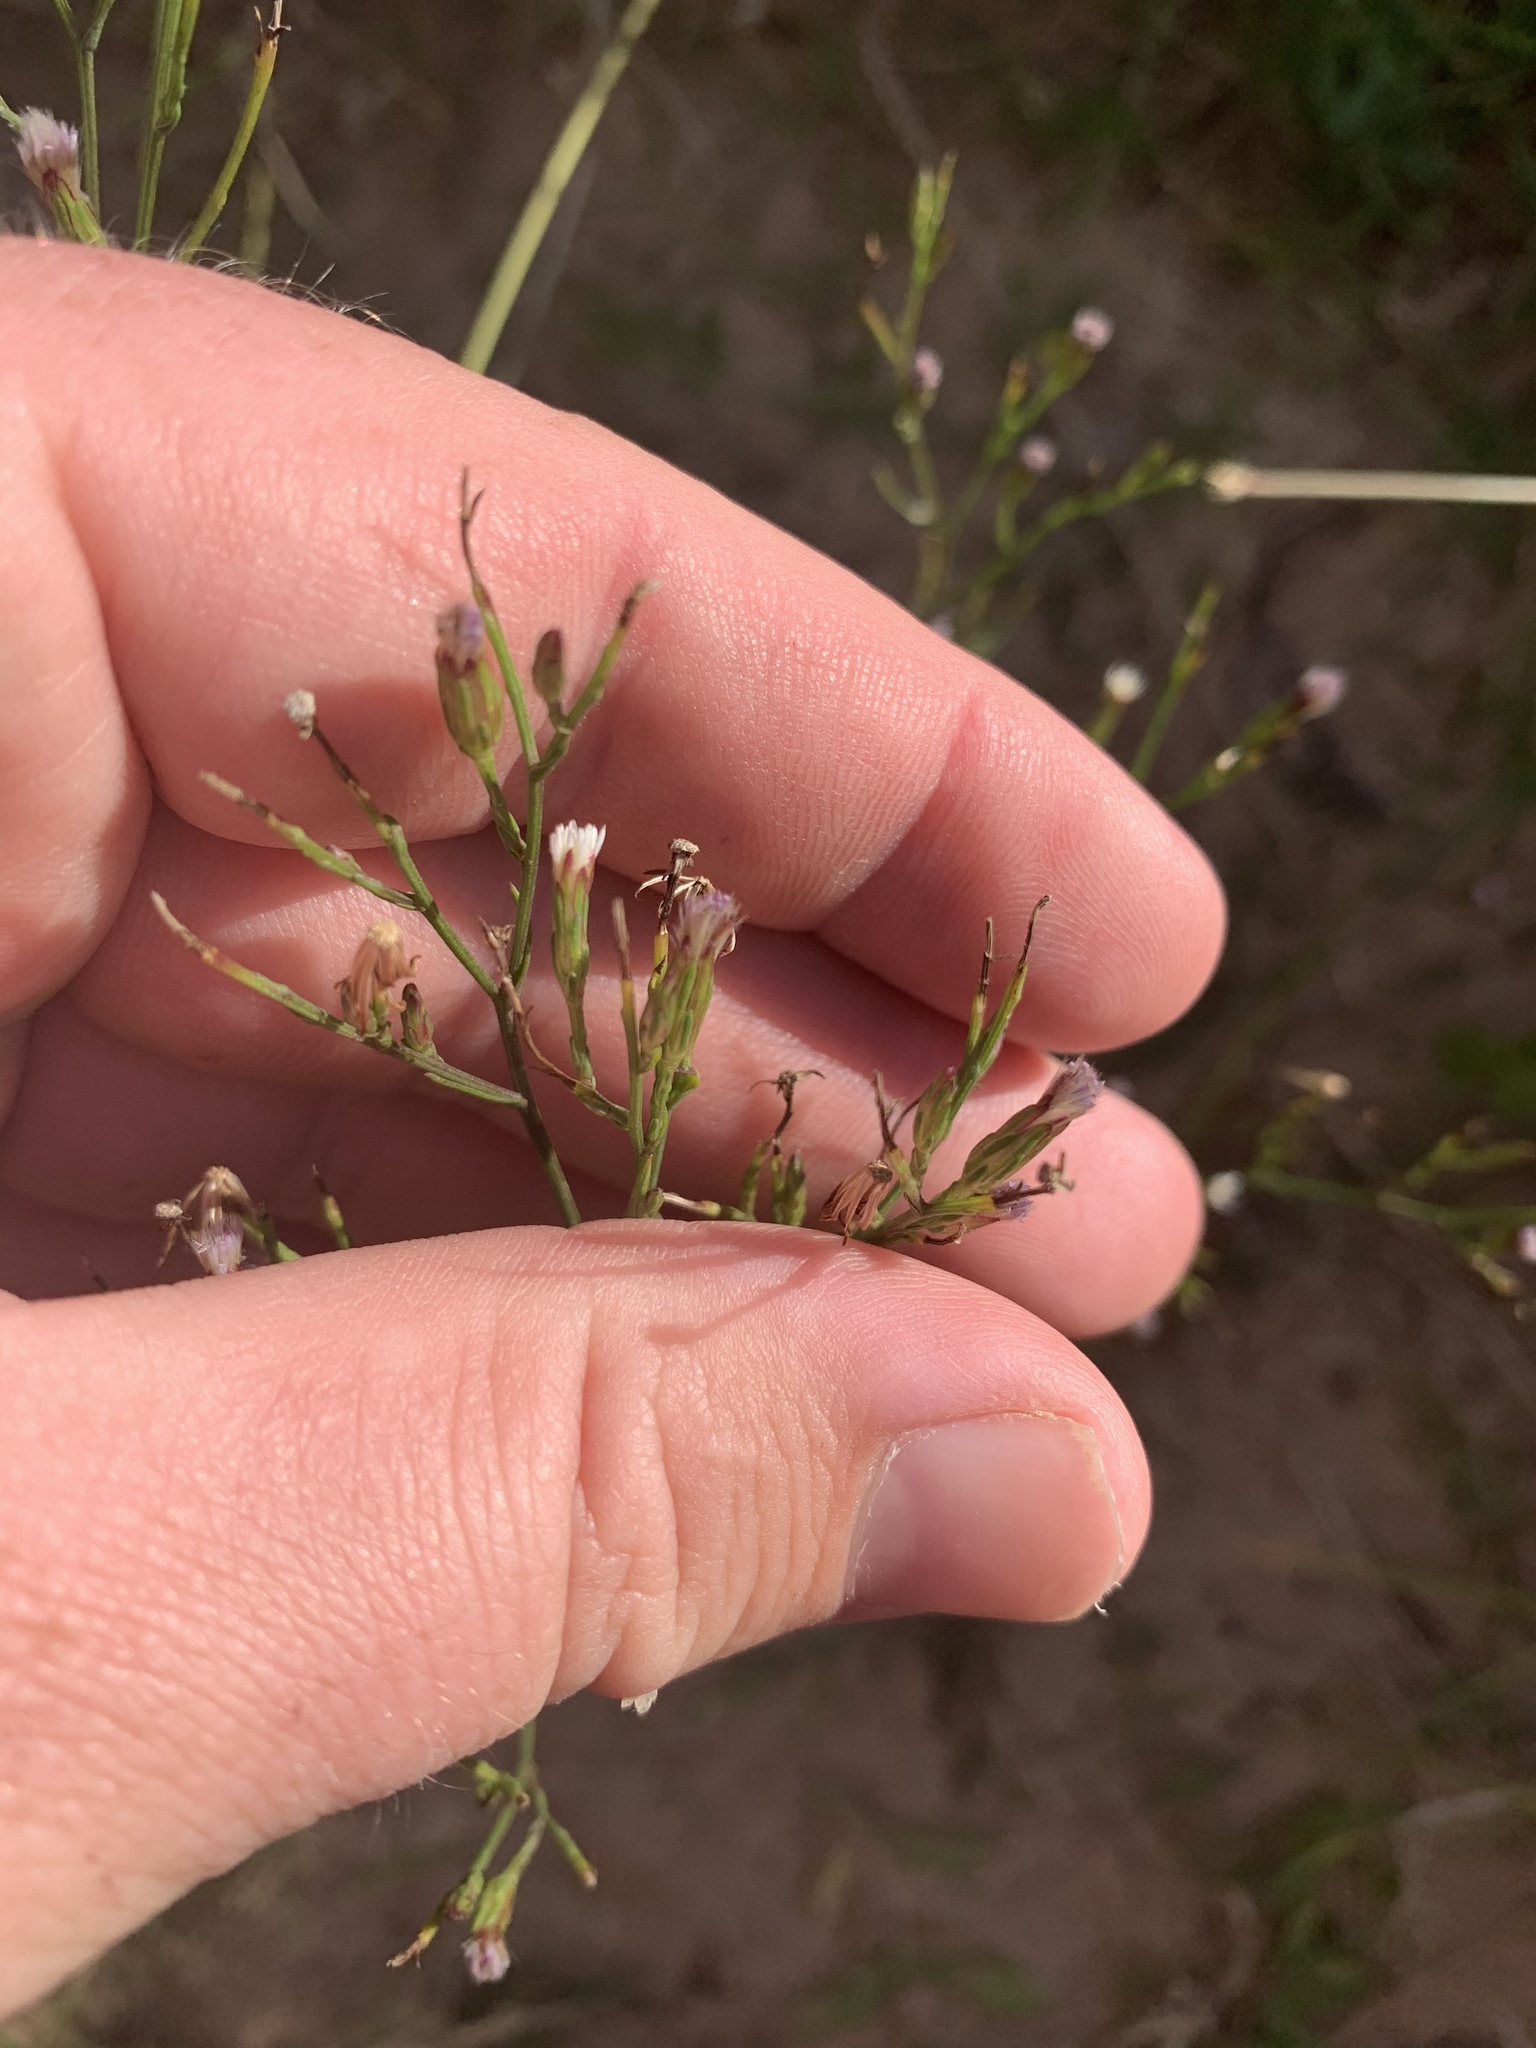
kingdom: Plantae
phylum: Tracheophyta
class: Magnoliopsida
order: Asterales
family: Asteraceae
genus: Symphyotrichum
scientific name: Symphyotrichum subulatum
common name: Annual saltmarsh aster
